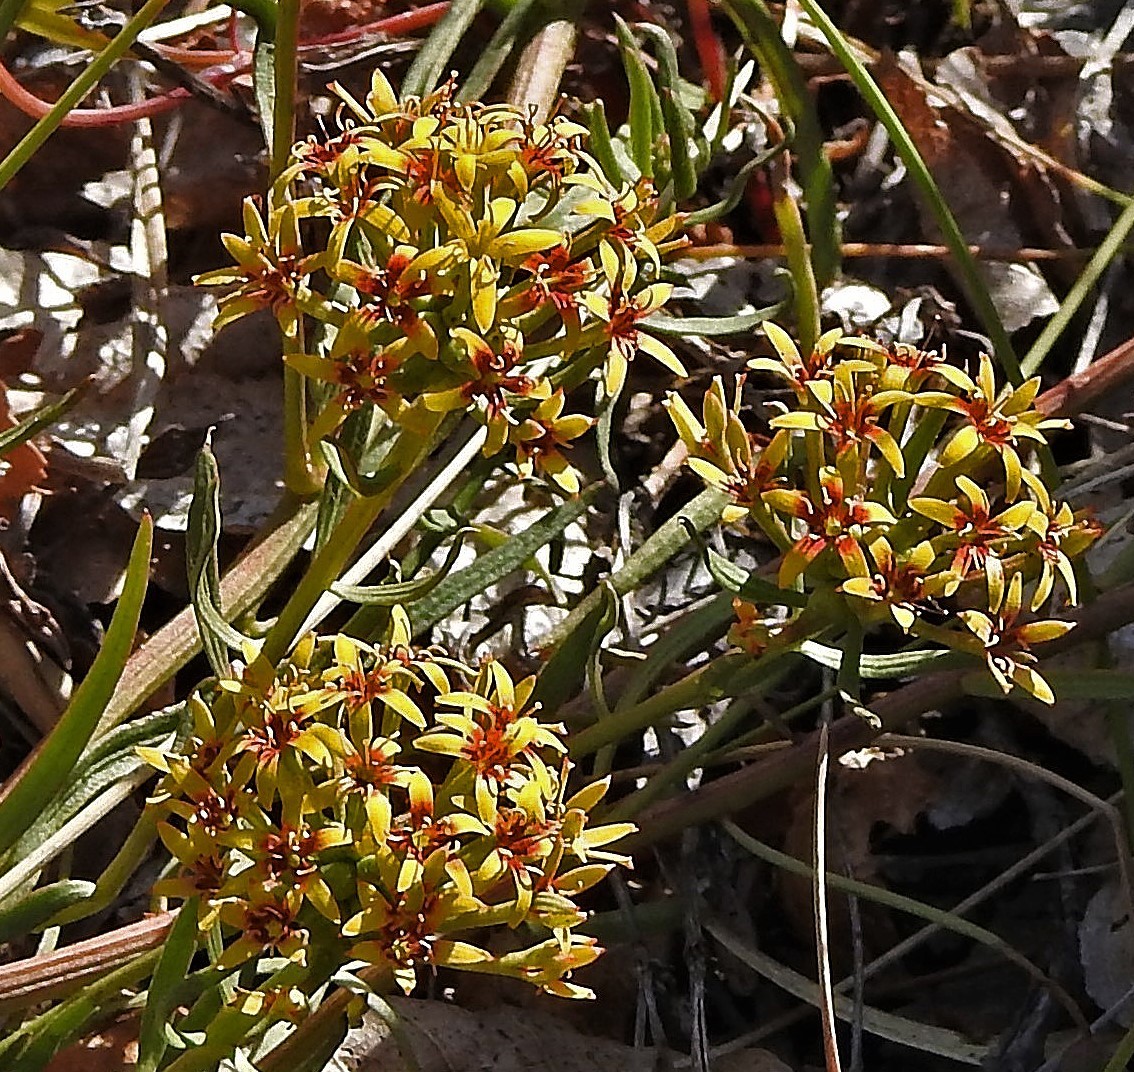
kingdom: Plantae
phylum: Tracheophyta
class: Magnoliopsida
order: Santalales
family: Schoepfiaceae
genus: Quinchamalium
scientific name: Quinchamalium chilense
